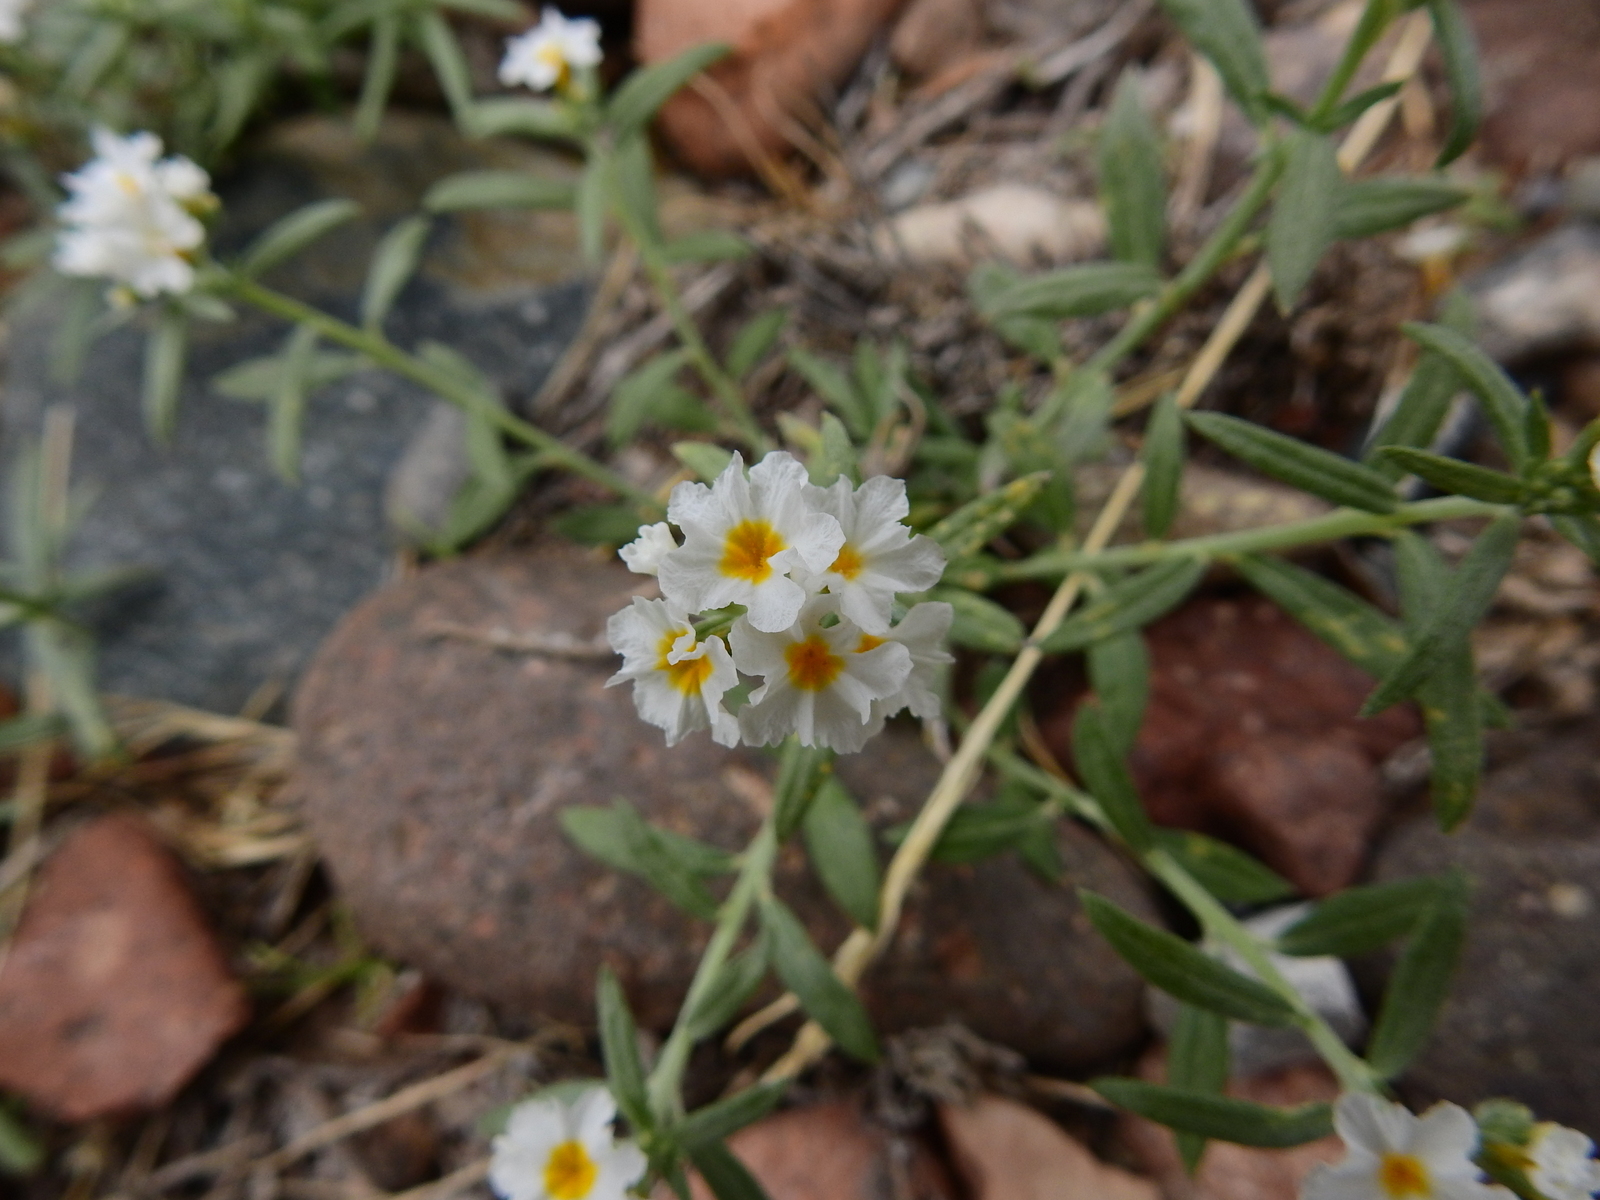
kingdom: Plantae
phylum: Tracheophyta
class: Magnoliopsida
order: Boraginales
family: Heliotropiaceae
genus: Euploca
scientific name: Euploca mendocina
